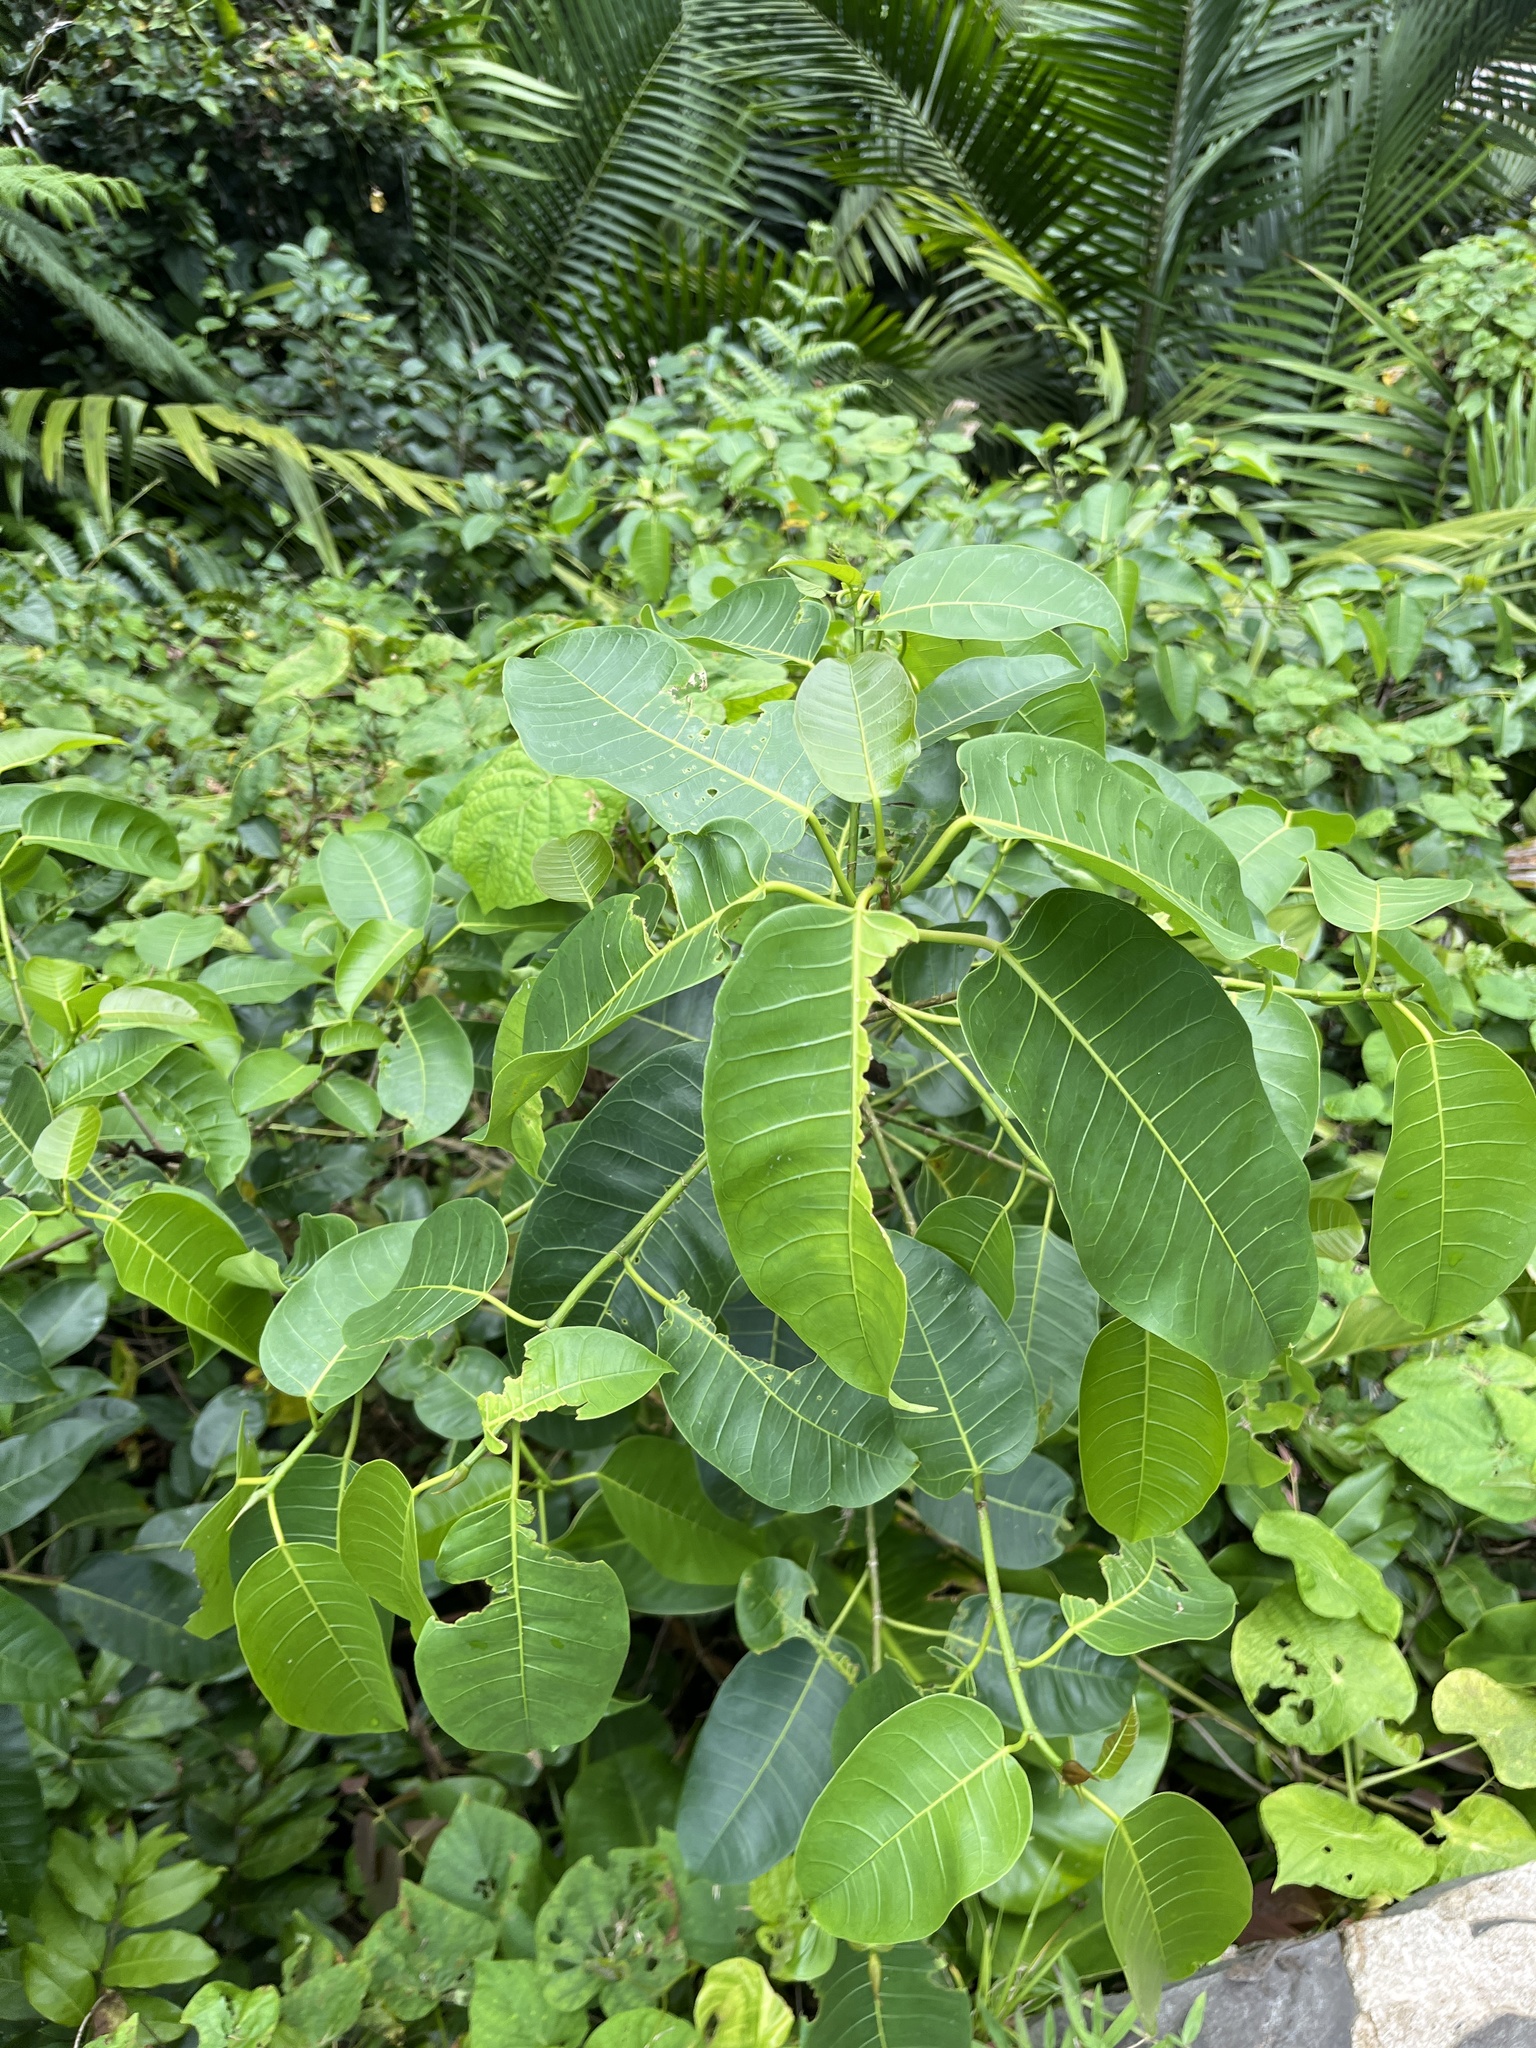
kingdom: Plantae
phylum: Tracheophyta
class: Magnoliopsida
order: Rosales
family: Moraceae
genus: Ficus
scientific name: Ficus citrifolia
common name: Strangler fig
